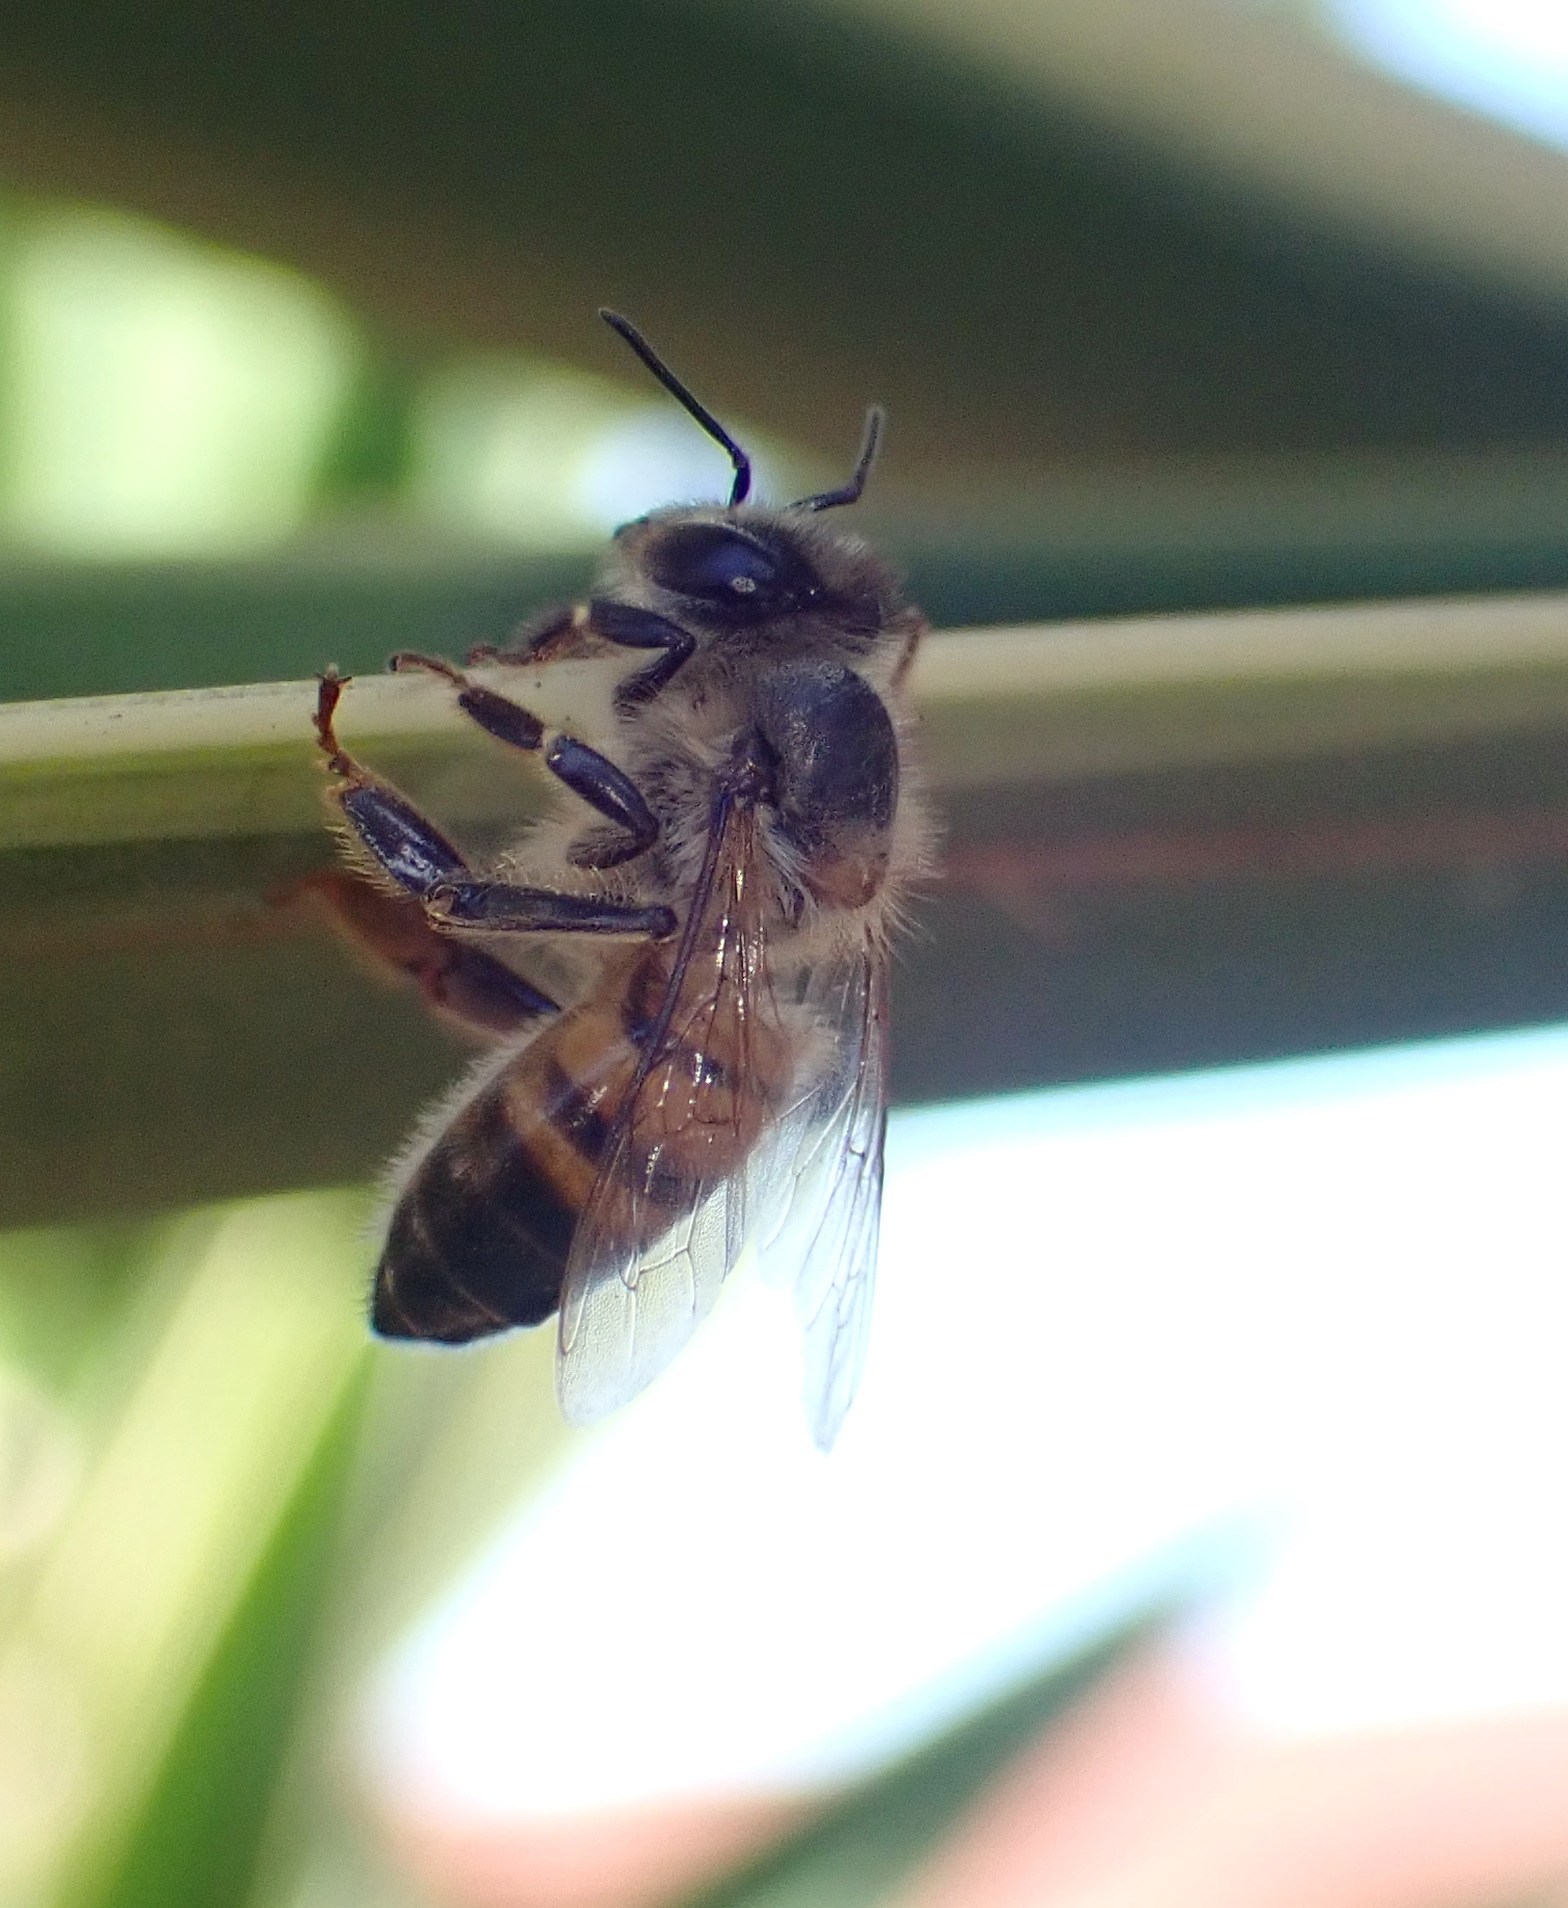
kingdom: Animalia
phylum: Arthropoda
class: Insecta
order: Hymenoptera
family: Apidae
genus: Apis
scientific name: Apis mellifera
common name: Honey bee
